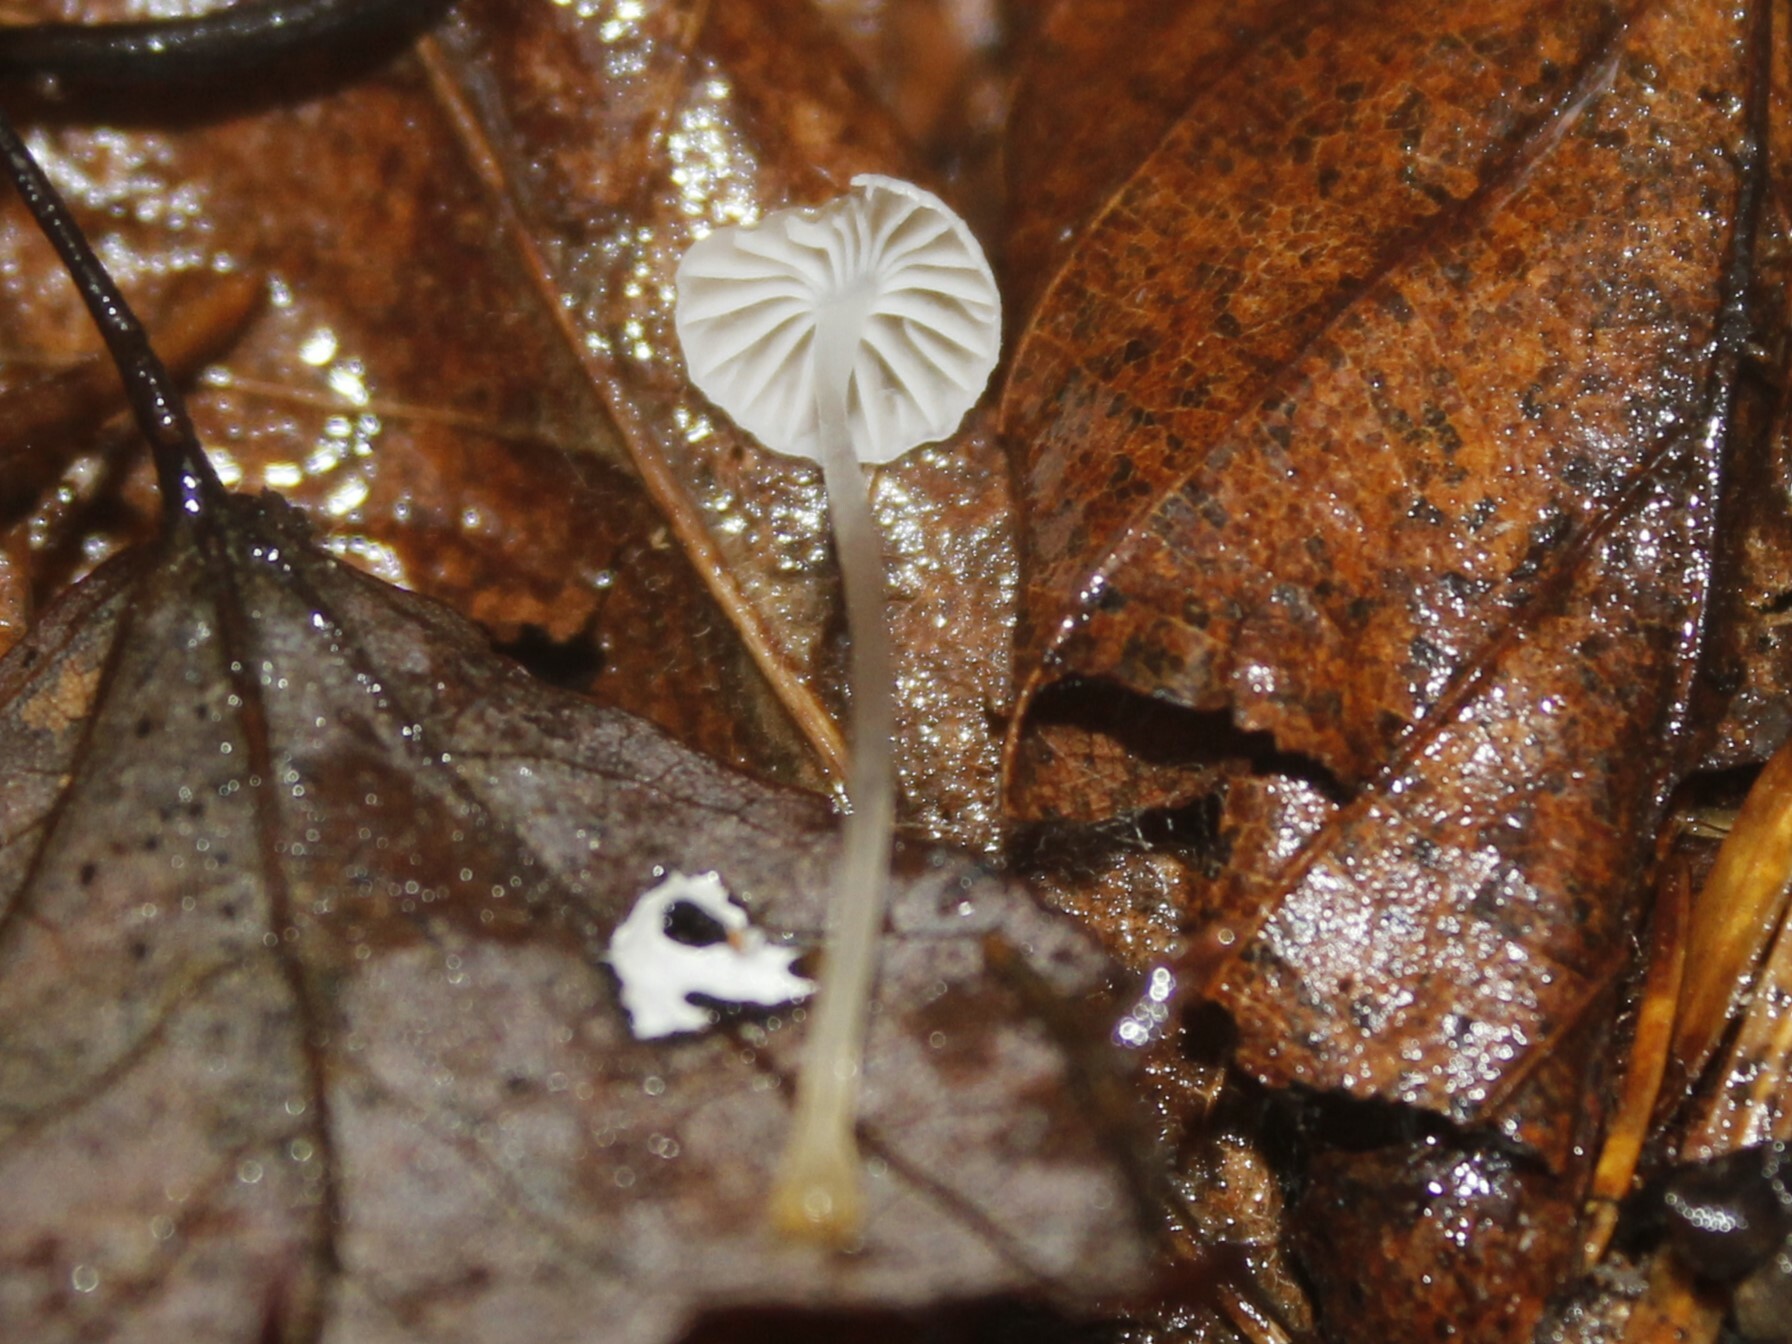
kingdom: Fungi
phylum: Basidiomycota
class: Agaricomycetes
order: Agaricales
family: Mycenaceae
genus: Roridomyces
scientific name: Roridomyces roridus
